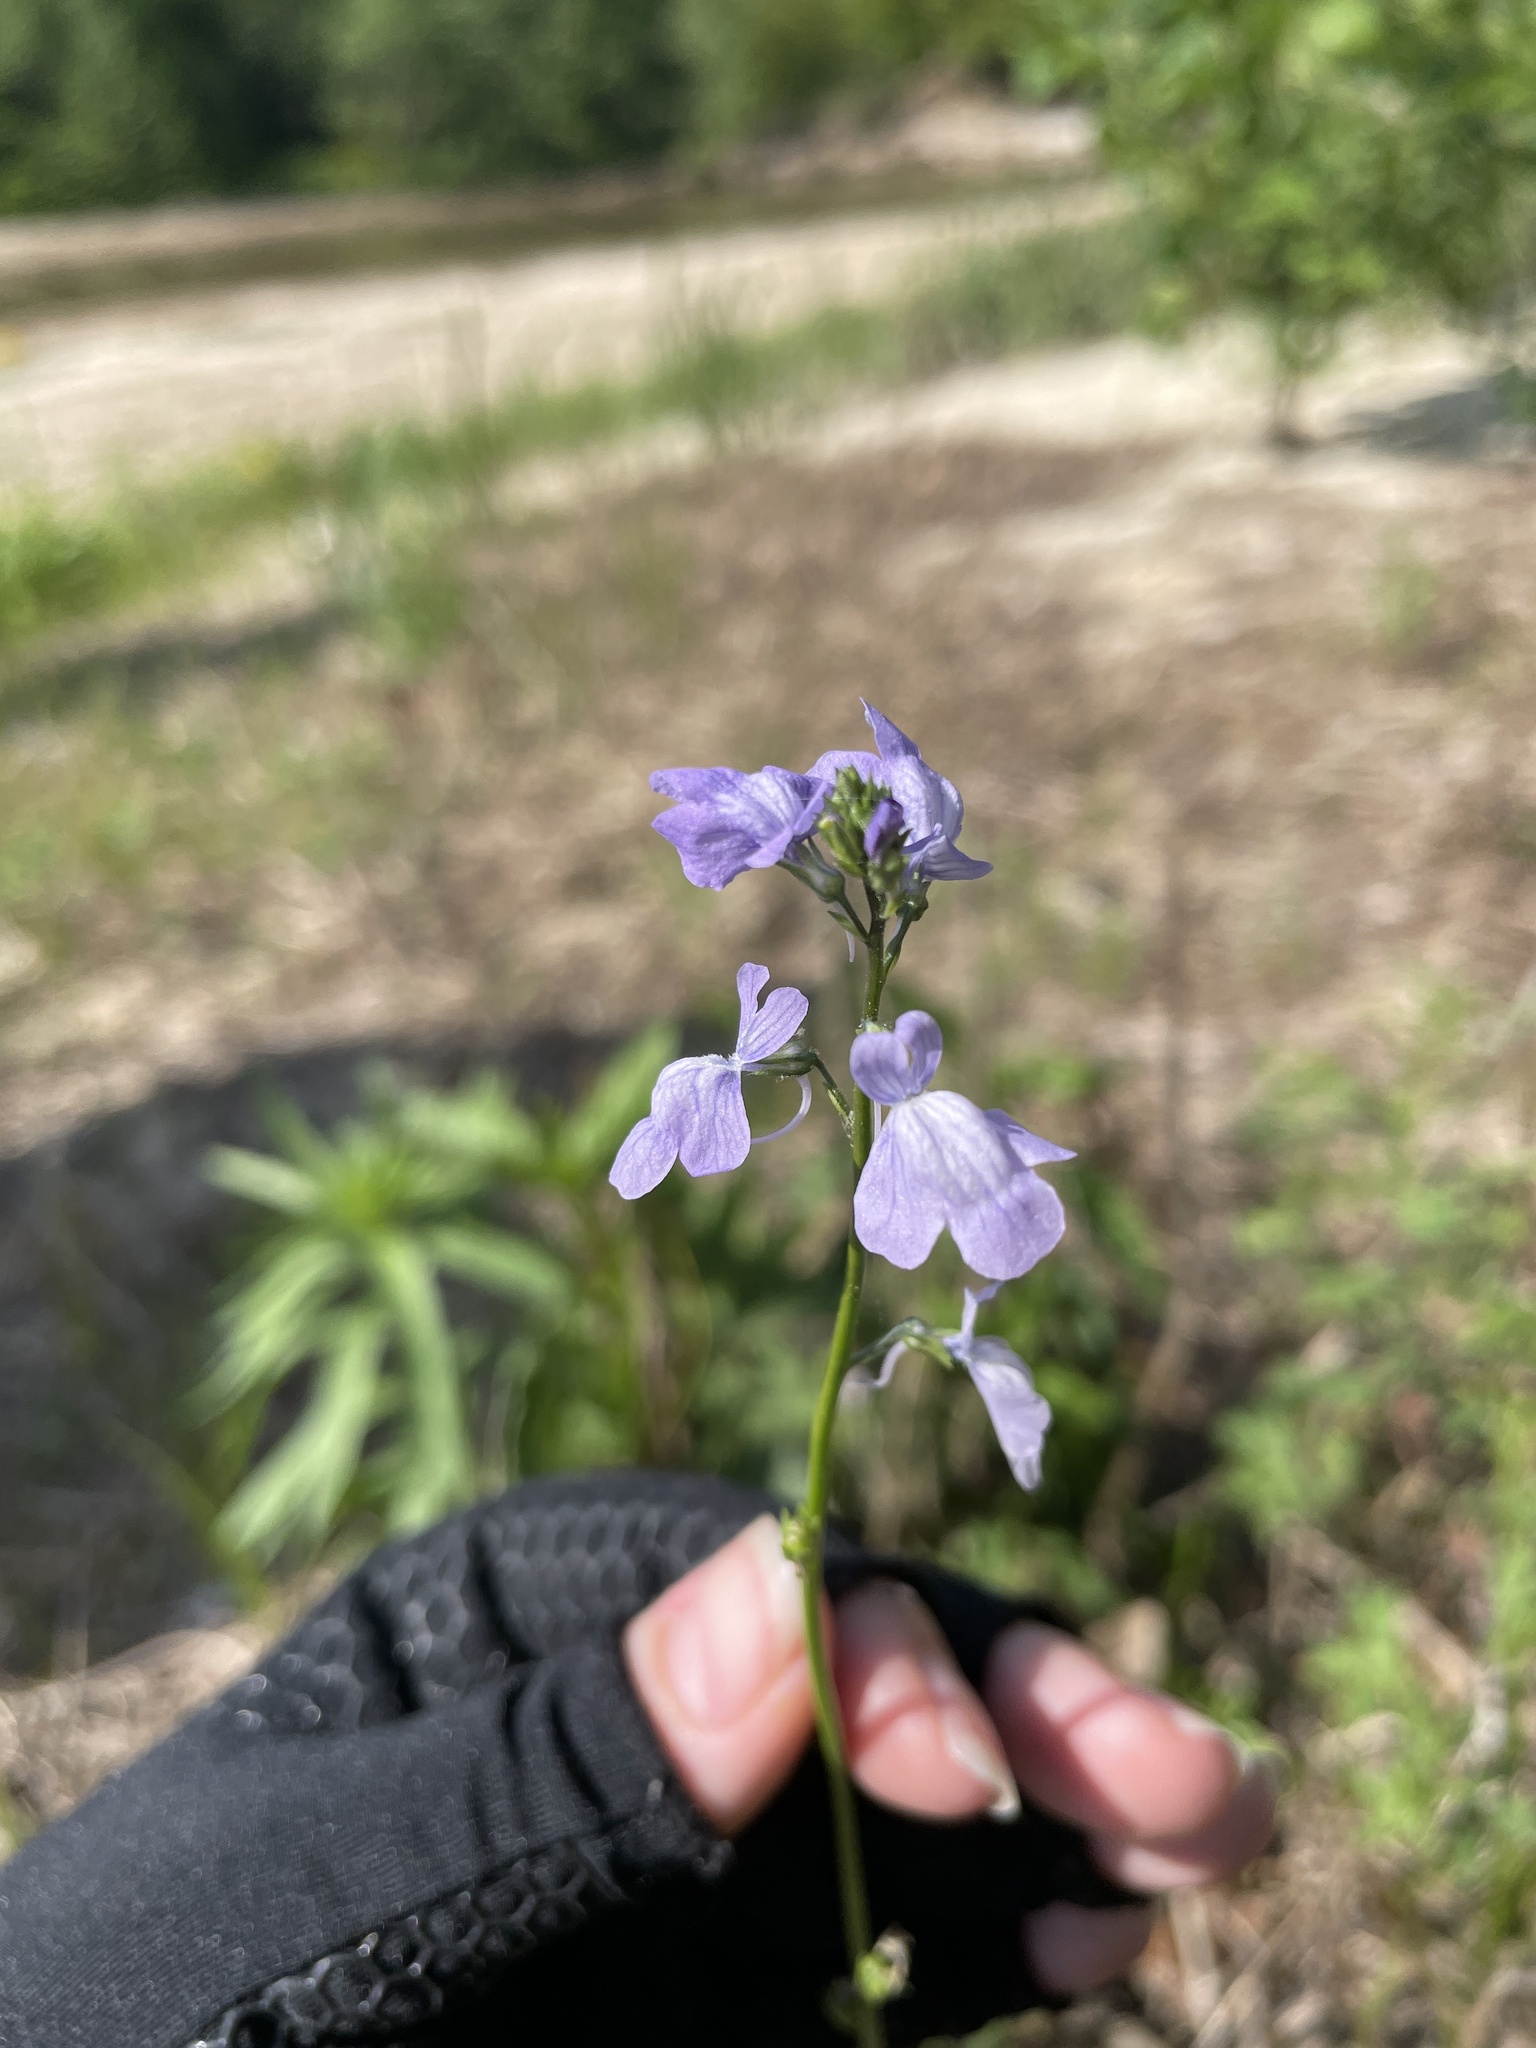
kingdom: Plantae
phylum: Tracheophyta
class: Magnoliopsida
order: Lamiales
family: Plantaginaceae
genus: Nuttallanthus
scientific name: Nuttallanthus texanus
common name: Texas toadflax
